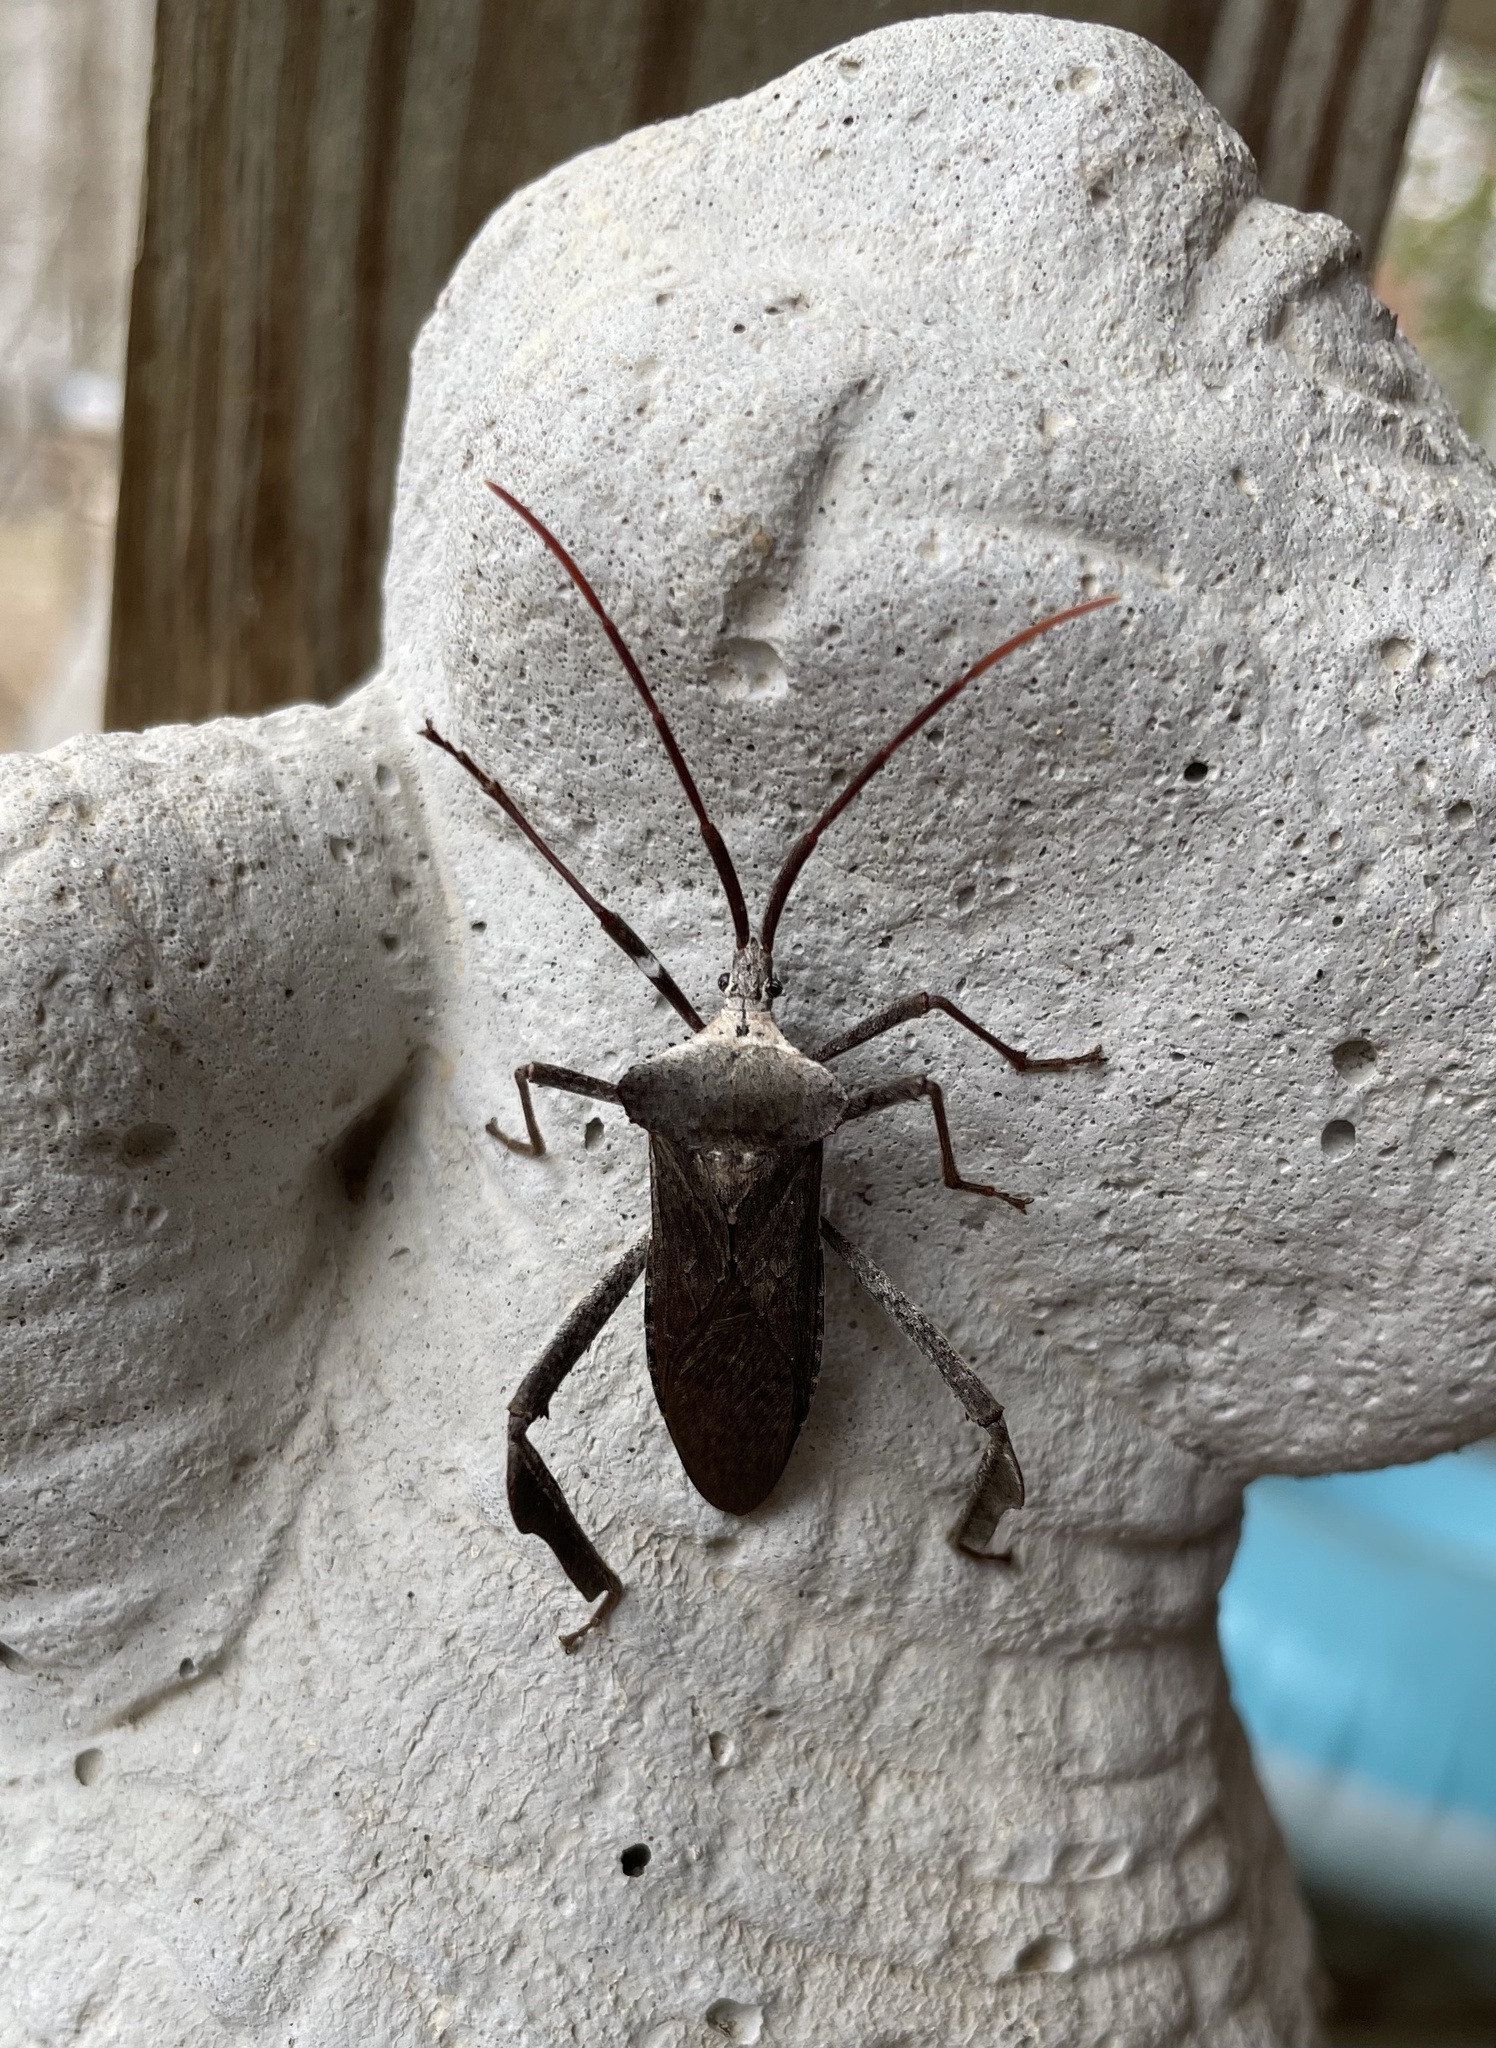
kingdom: Animalia
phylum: Arthropoda
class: Insecta
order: Hemiptera
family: Coreidae
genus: Acanthocephala
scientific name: Acanthocephala declivis
